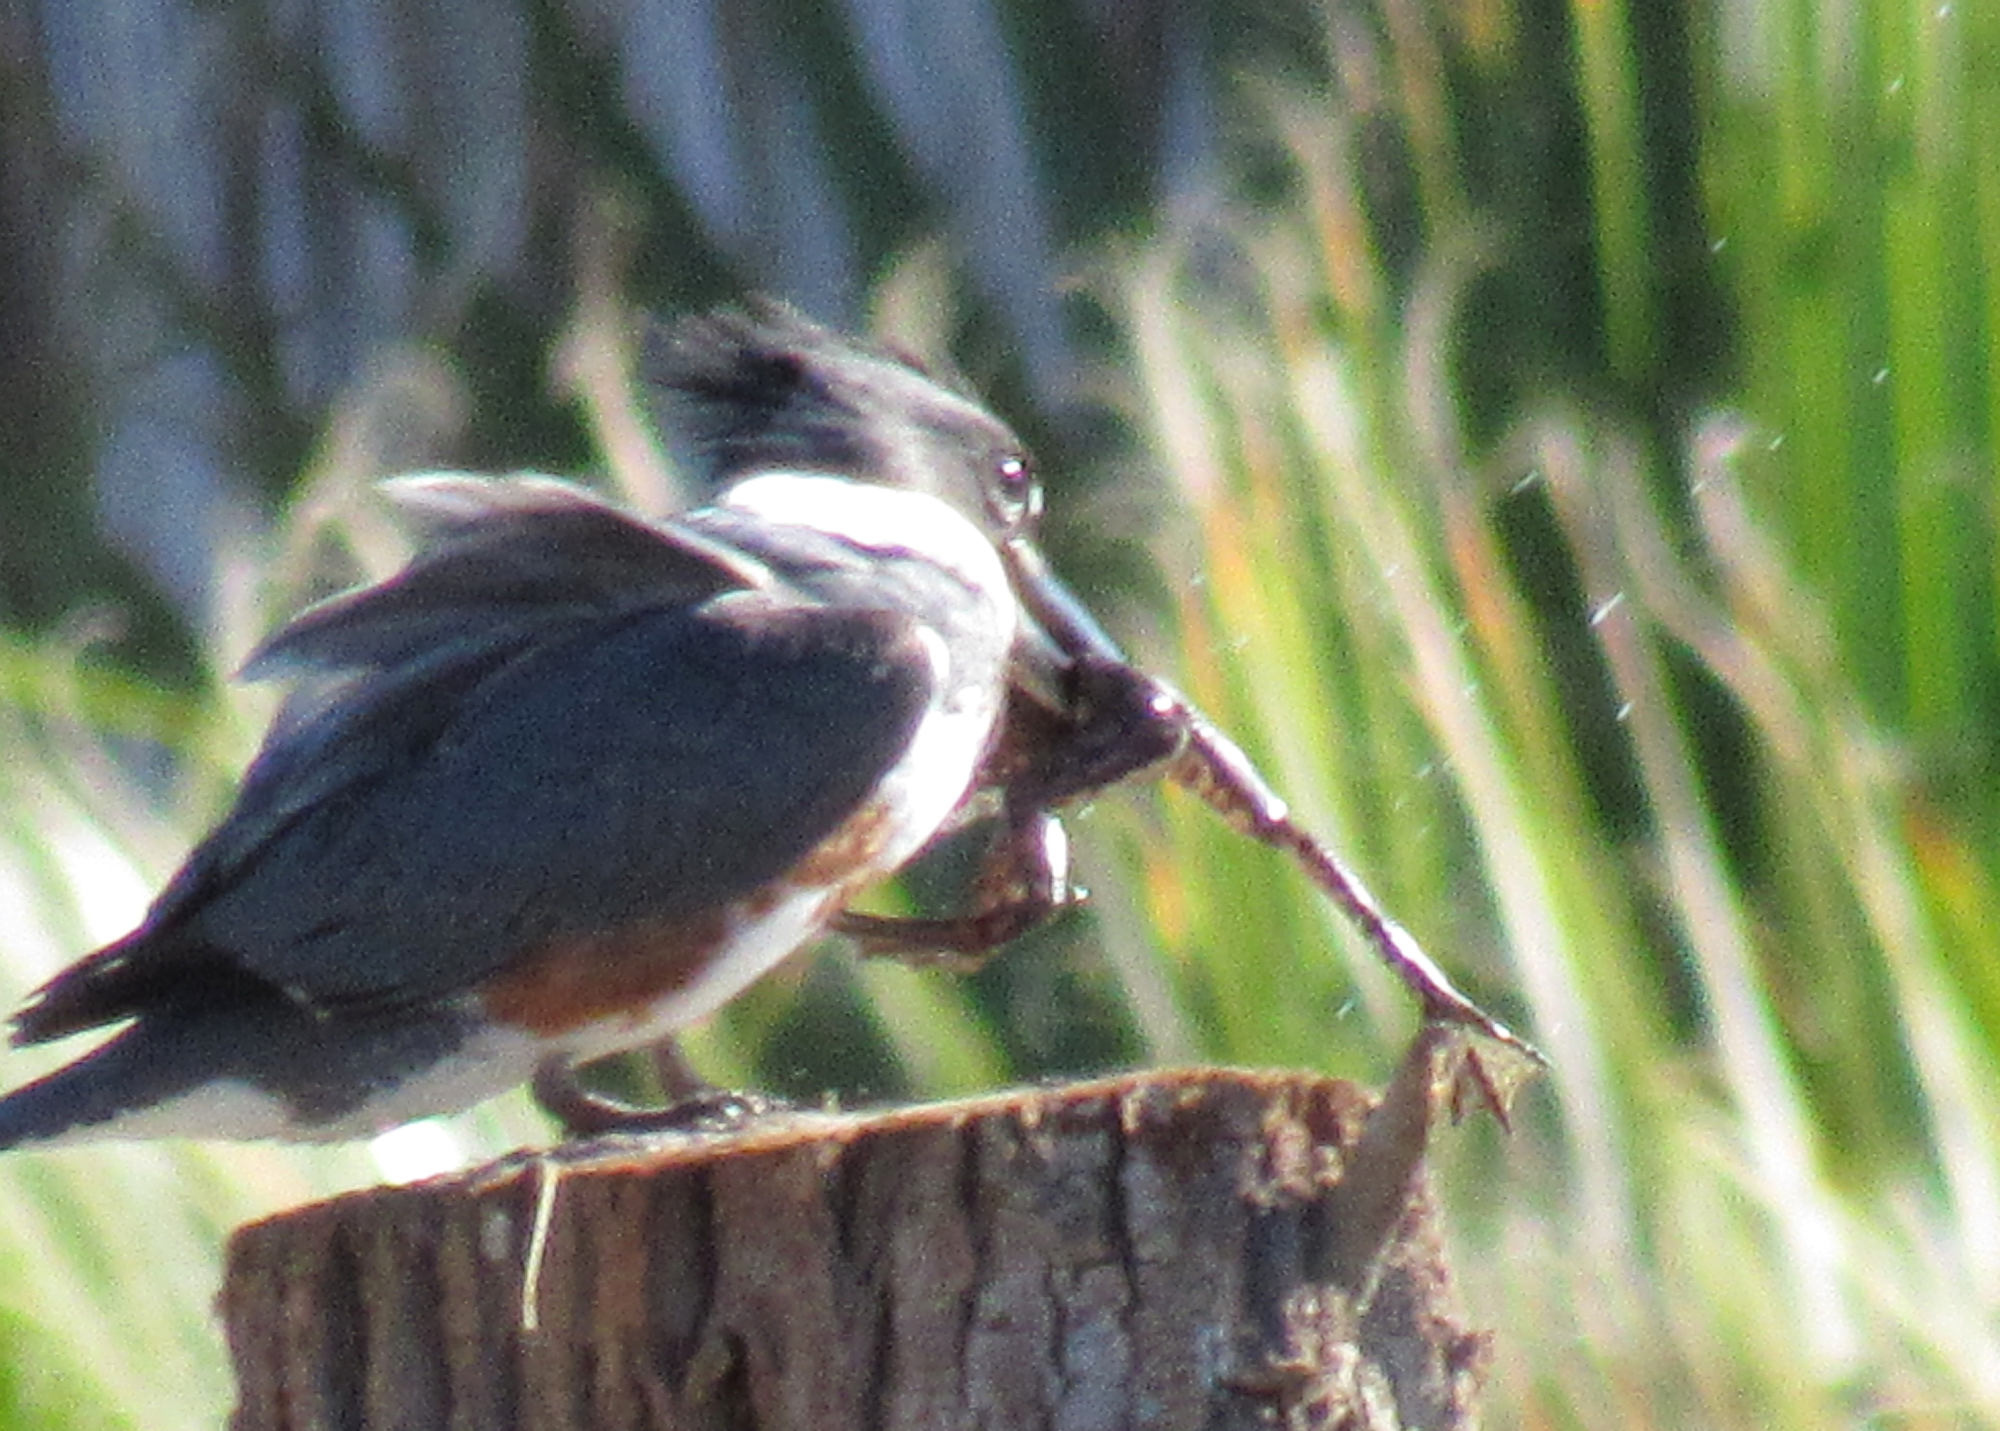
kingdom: Animalia
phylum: Chordata
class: Amphibia
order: Anura
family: Ranidae
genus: Lithobates
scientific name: Lithobates catesbeianus
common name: American bullfrog
